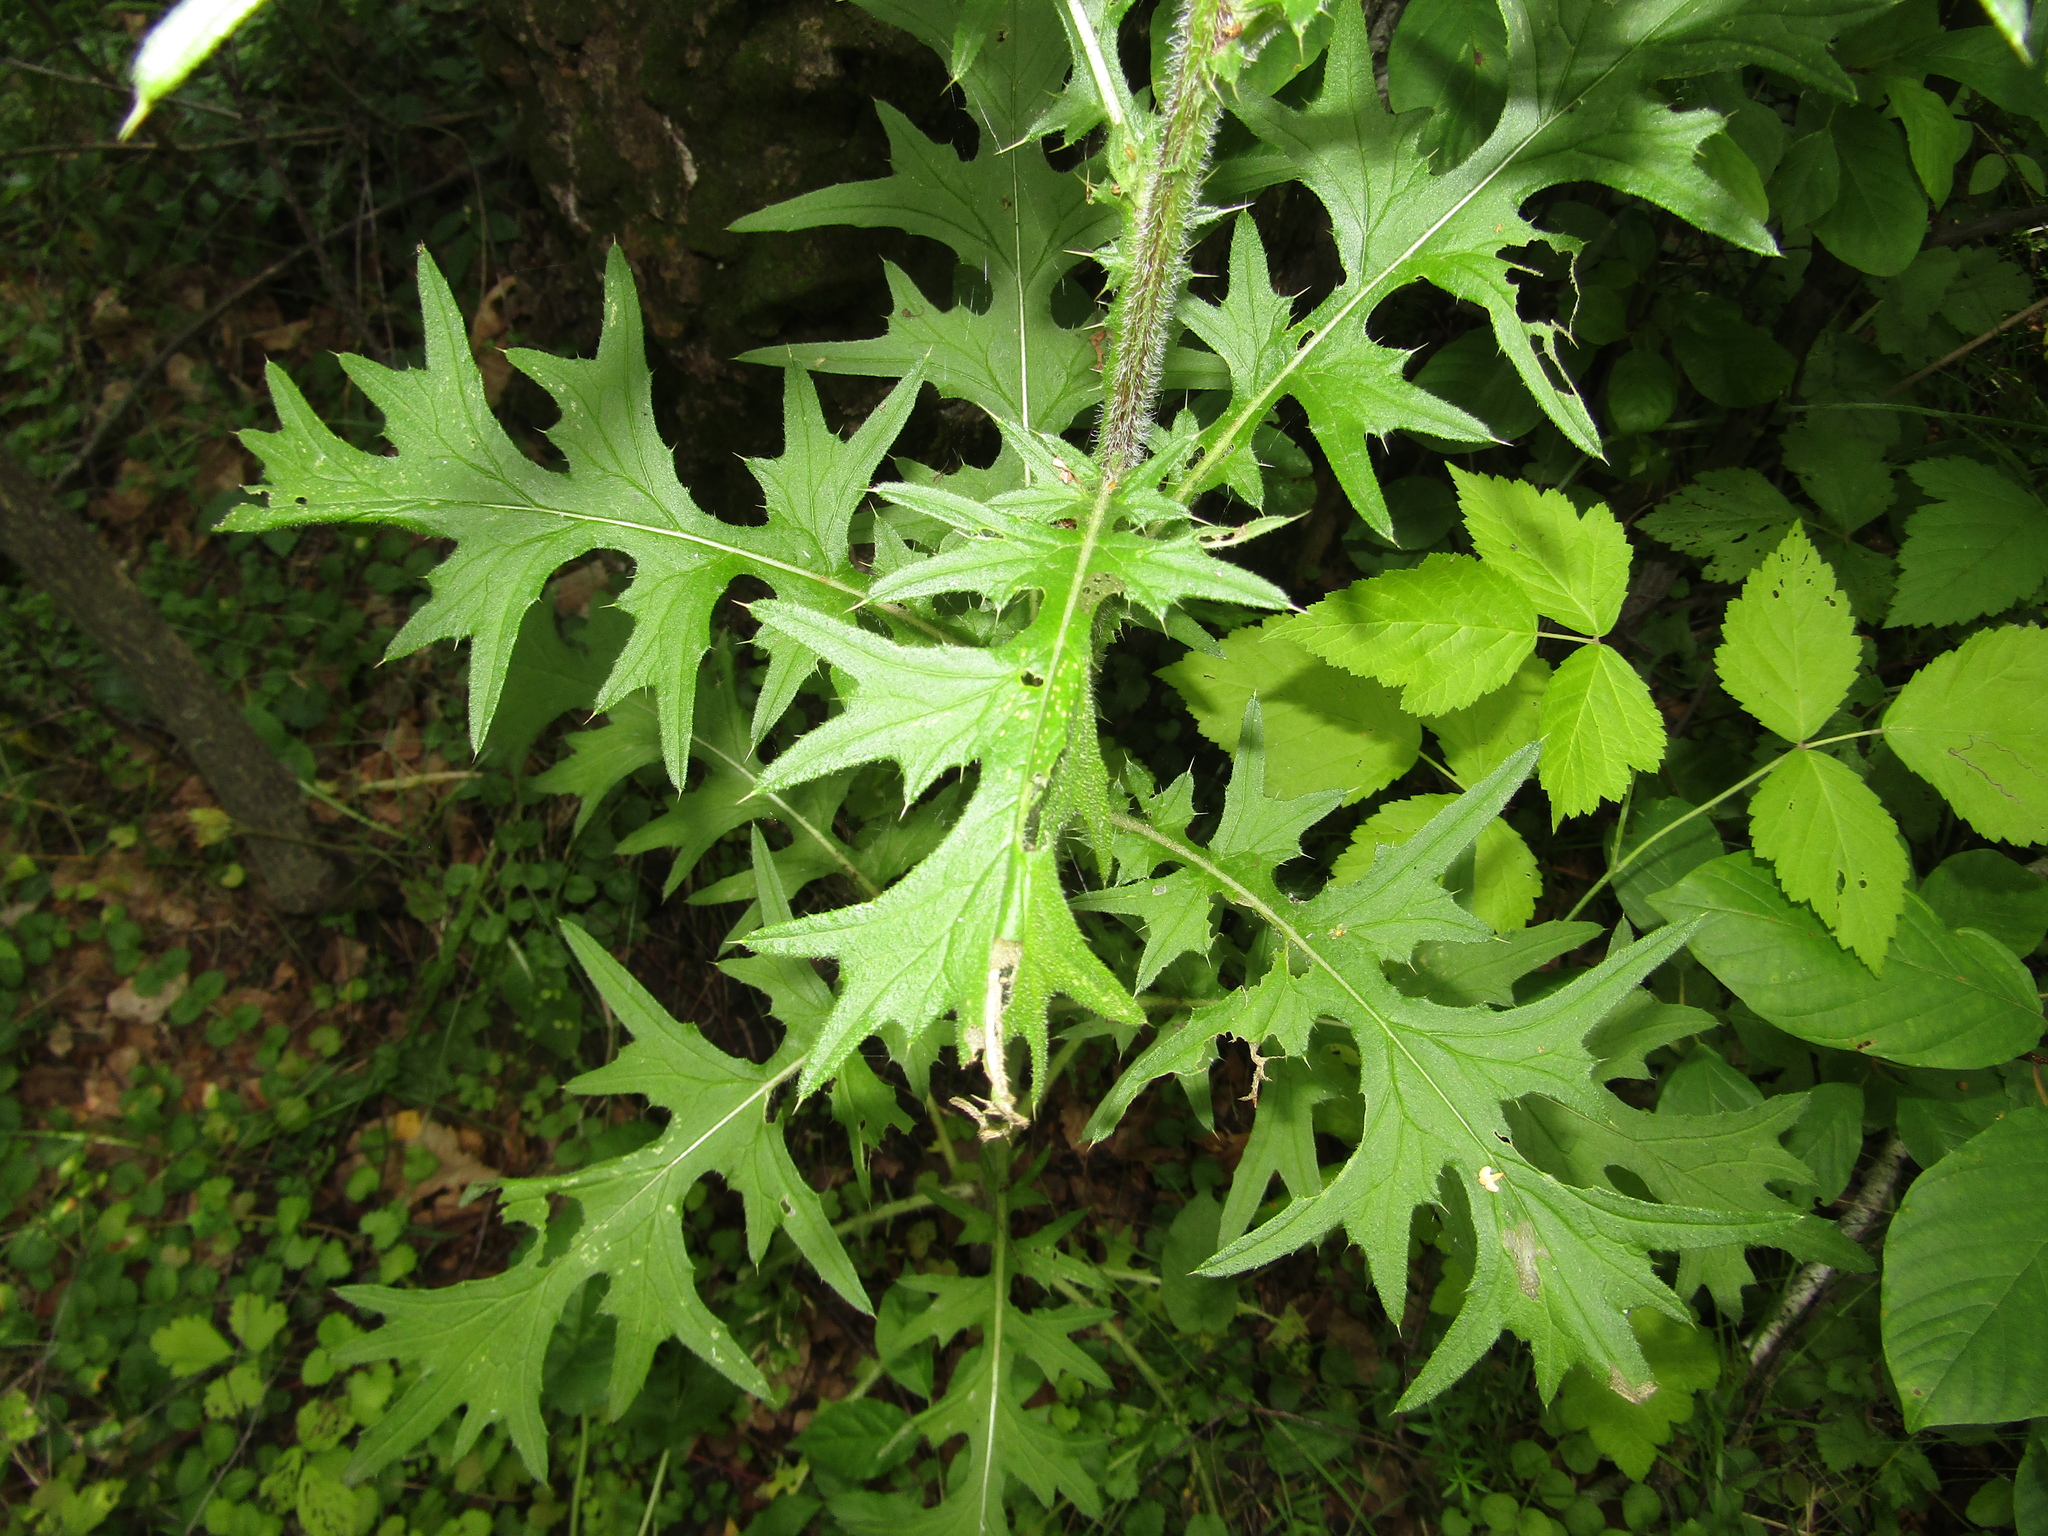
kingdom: Plantae
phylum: Tracheophyta
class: Magnoliopsida
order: Asterales
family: Asteraceae
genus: Cirsium
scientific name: Cirsium vulgare
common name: Bull thistle
